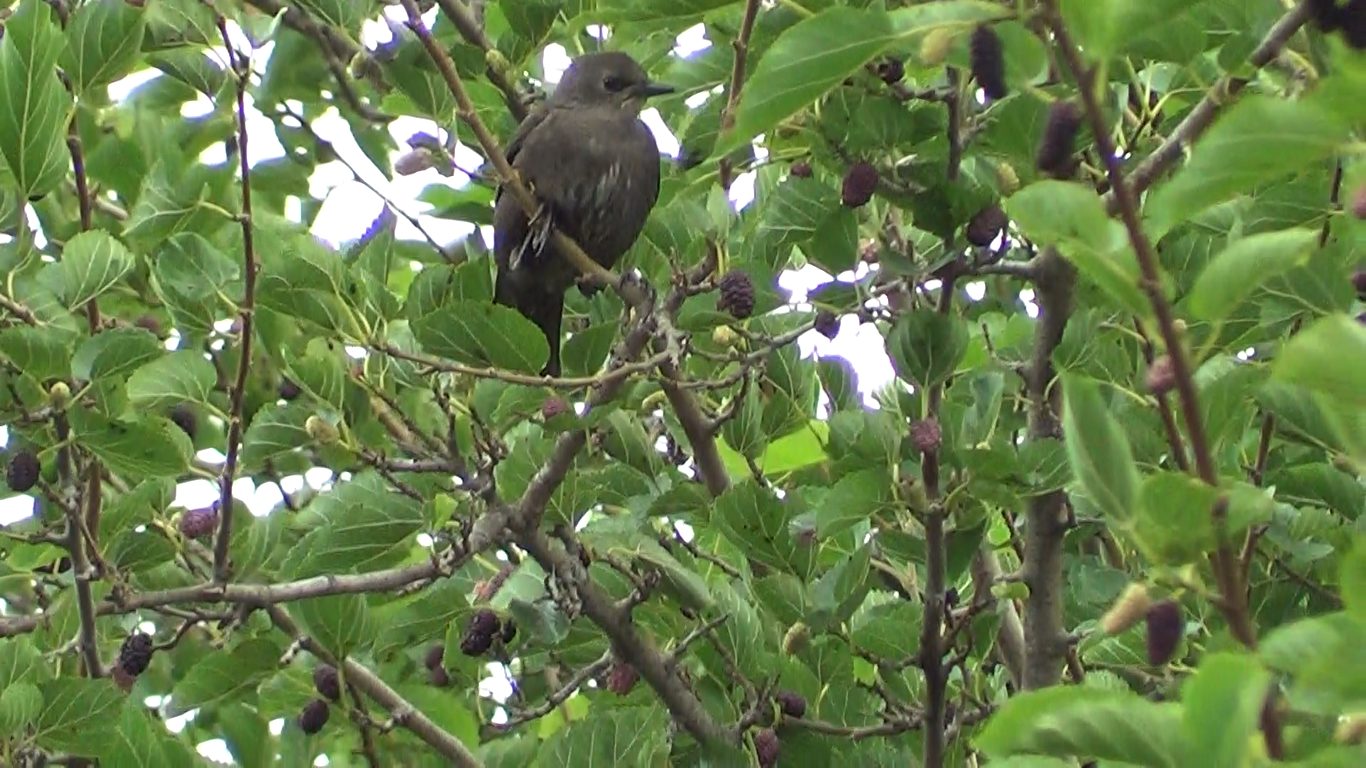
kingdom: Animalia
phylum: Chordata
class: Aves
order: Passeriformes
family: Sturnidae
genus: Sturnus
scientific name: Sturnus vulgaris
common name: Common starling
